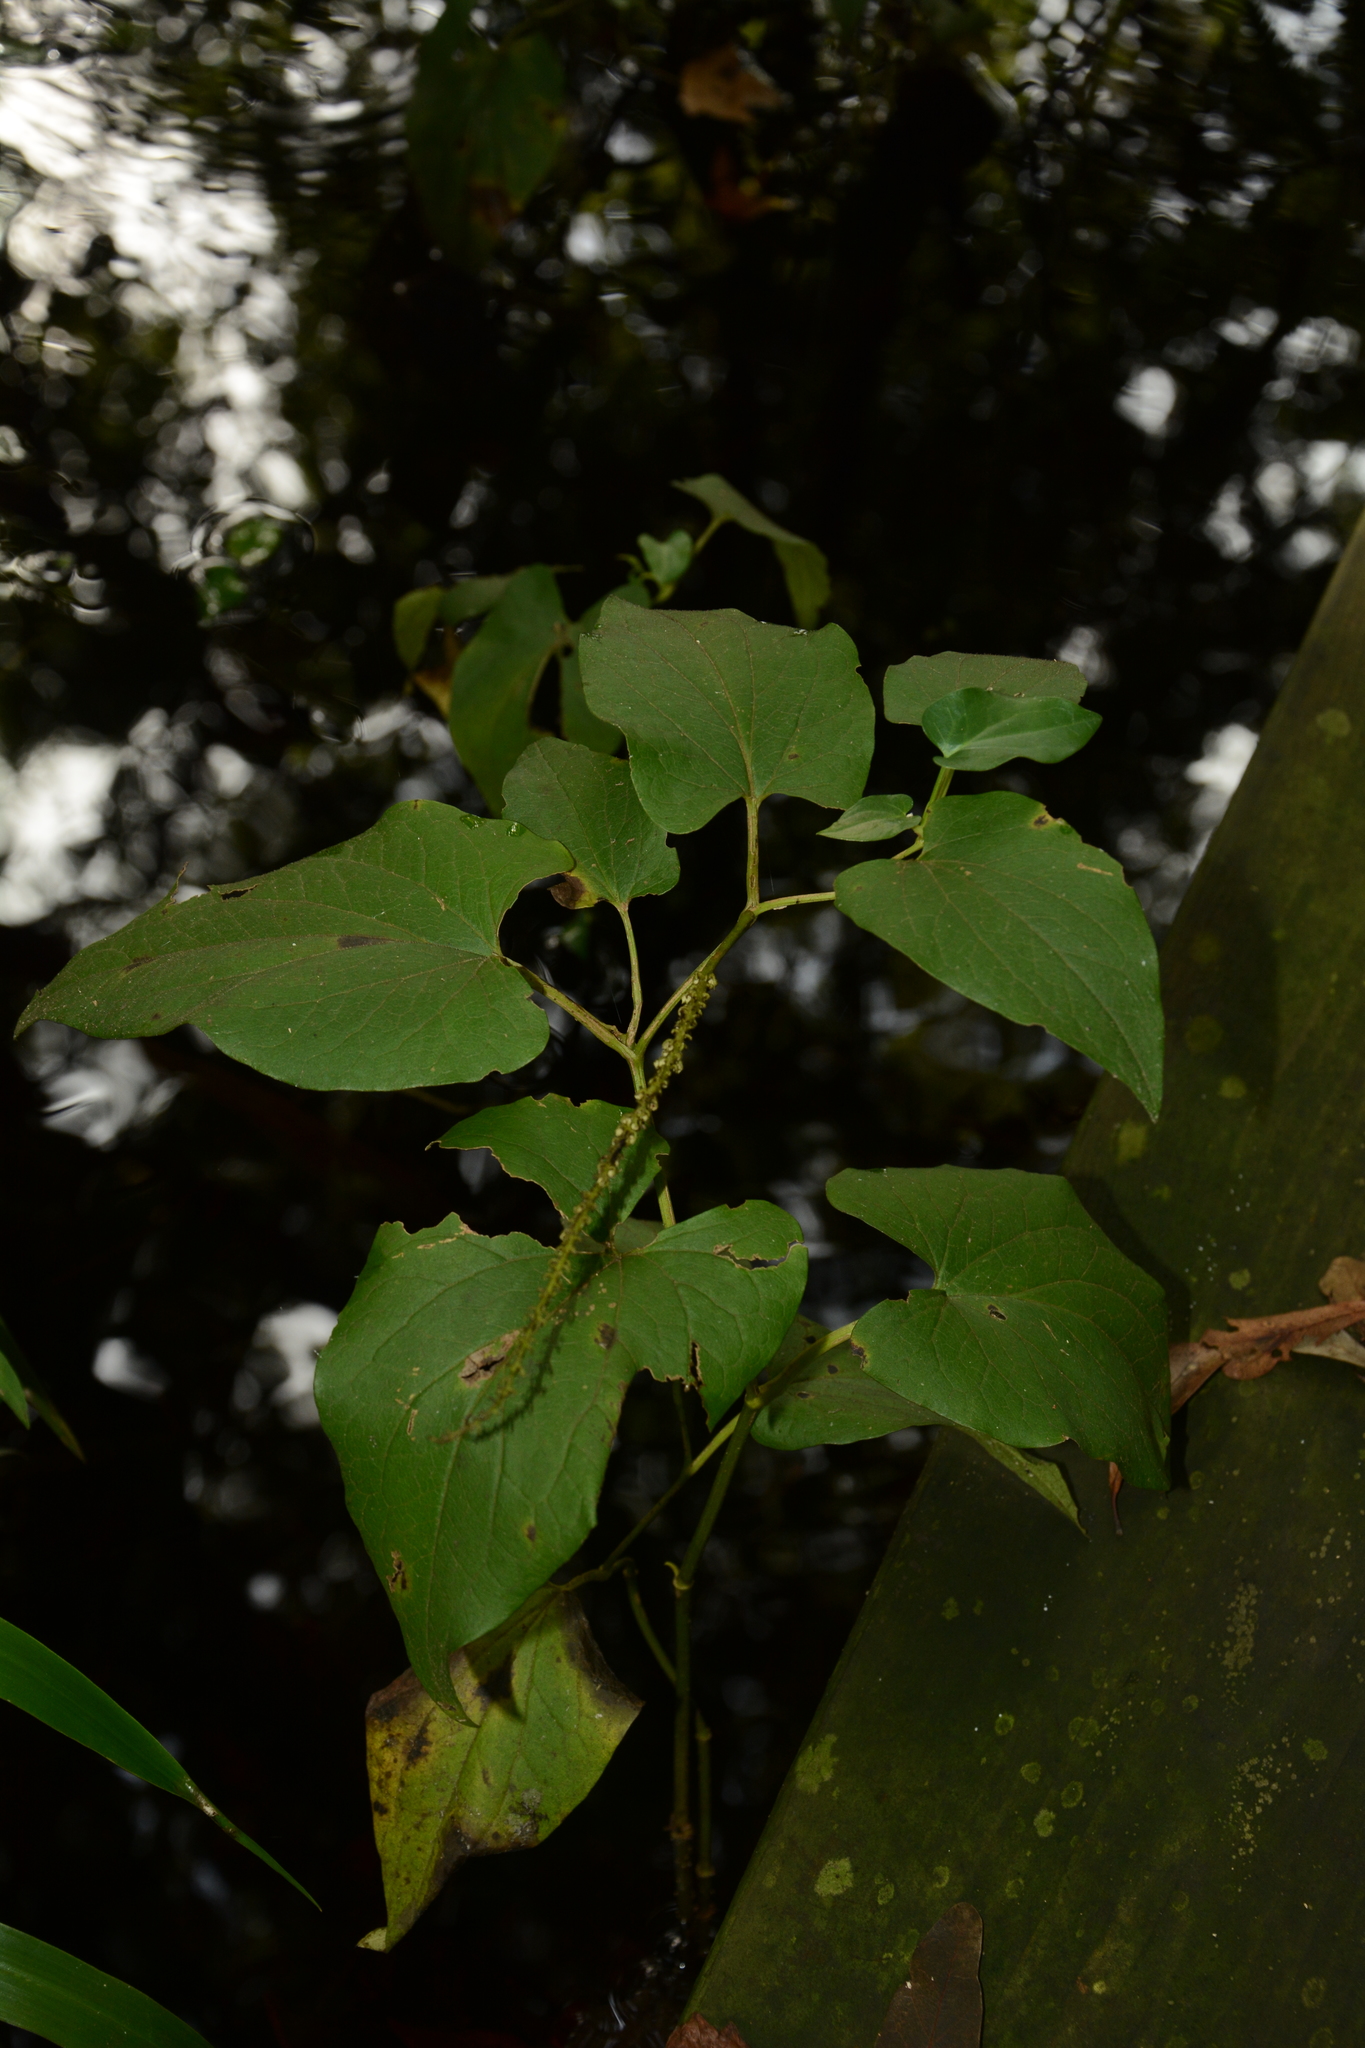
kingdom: Plantae
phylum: Tracheophyta
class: Magnoliopsida
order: Piperales
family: Saururaceae
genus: Saururus
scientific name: Saururus cernuus
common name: Lizard's-tail
